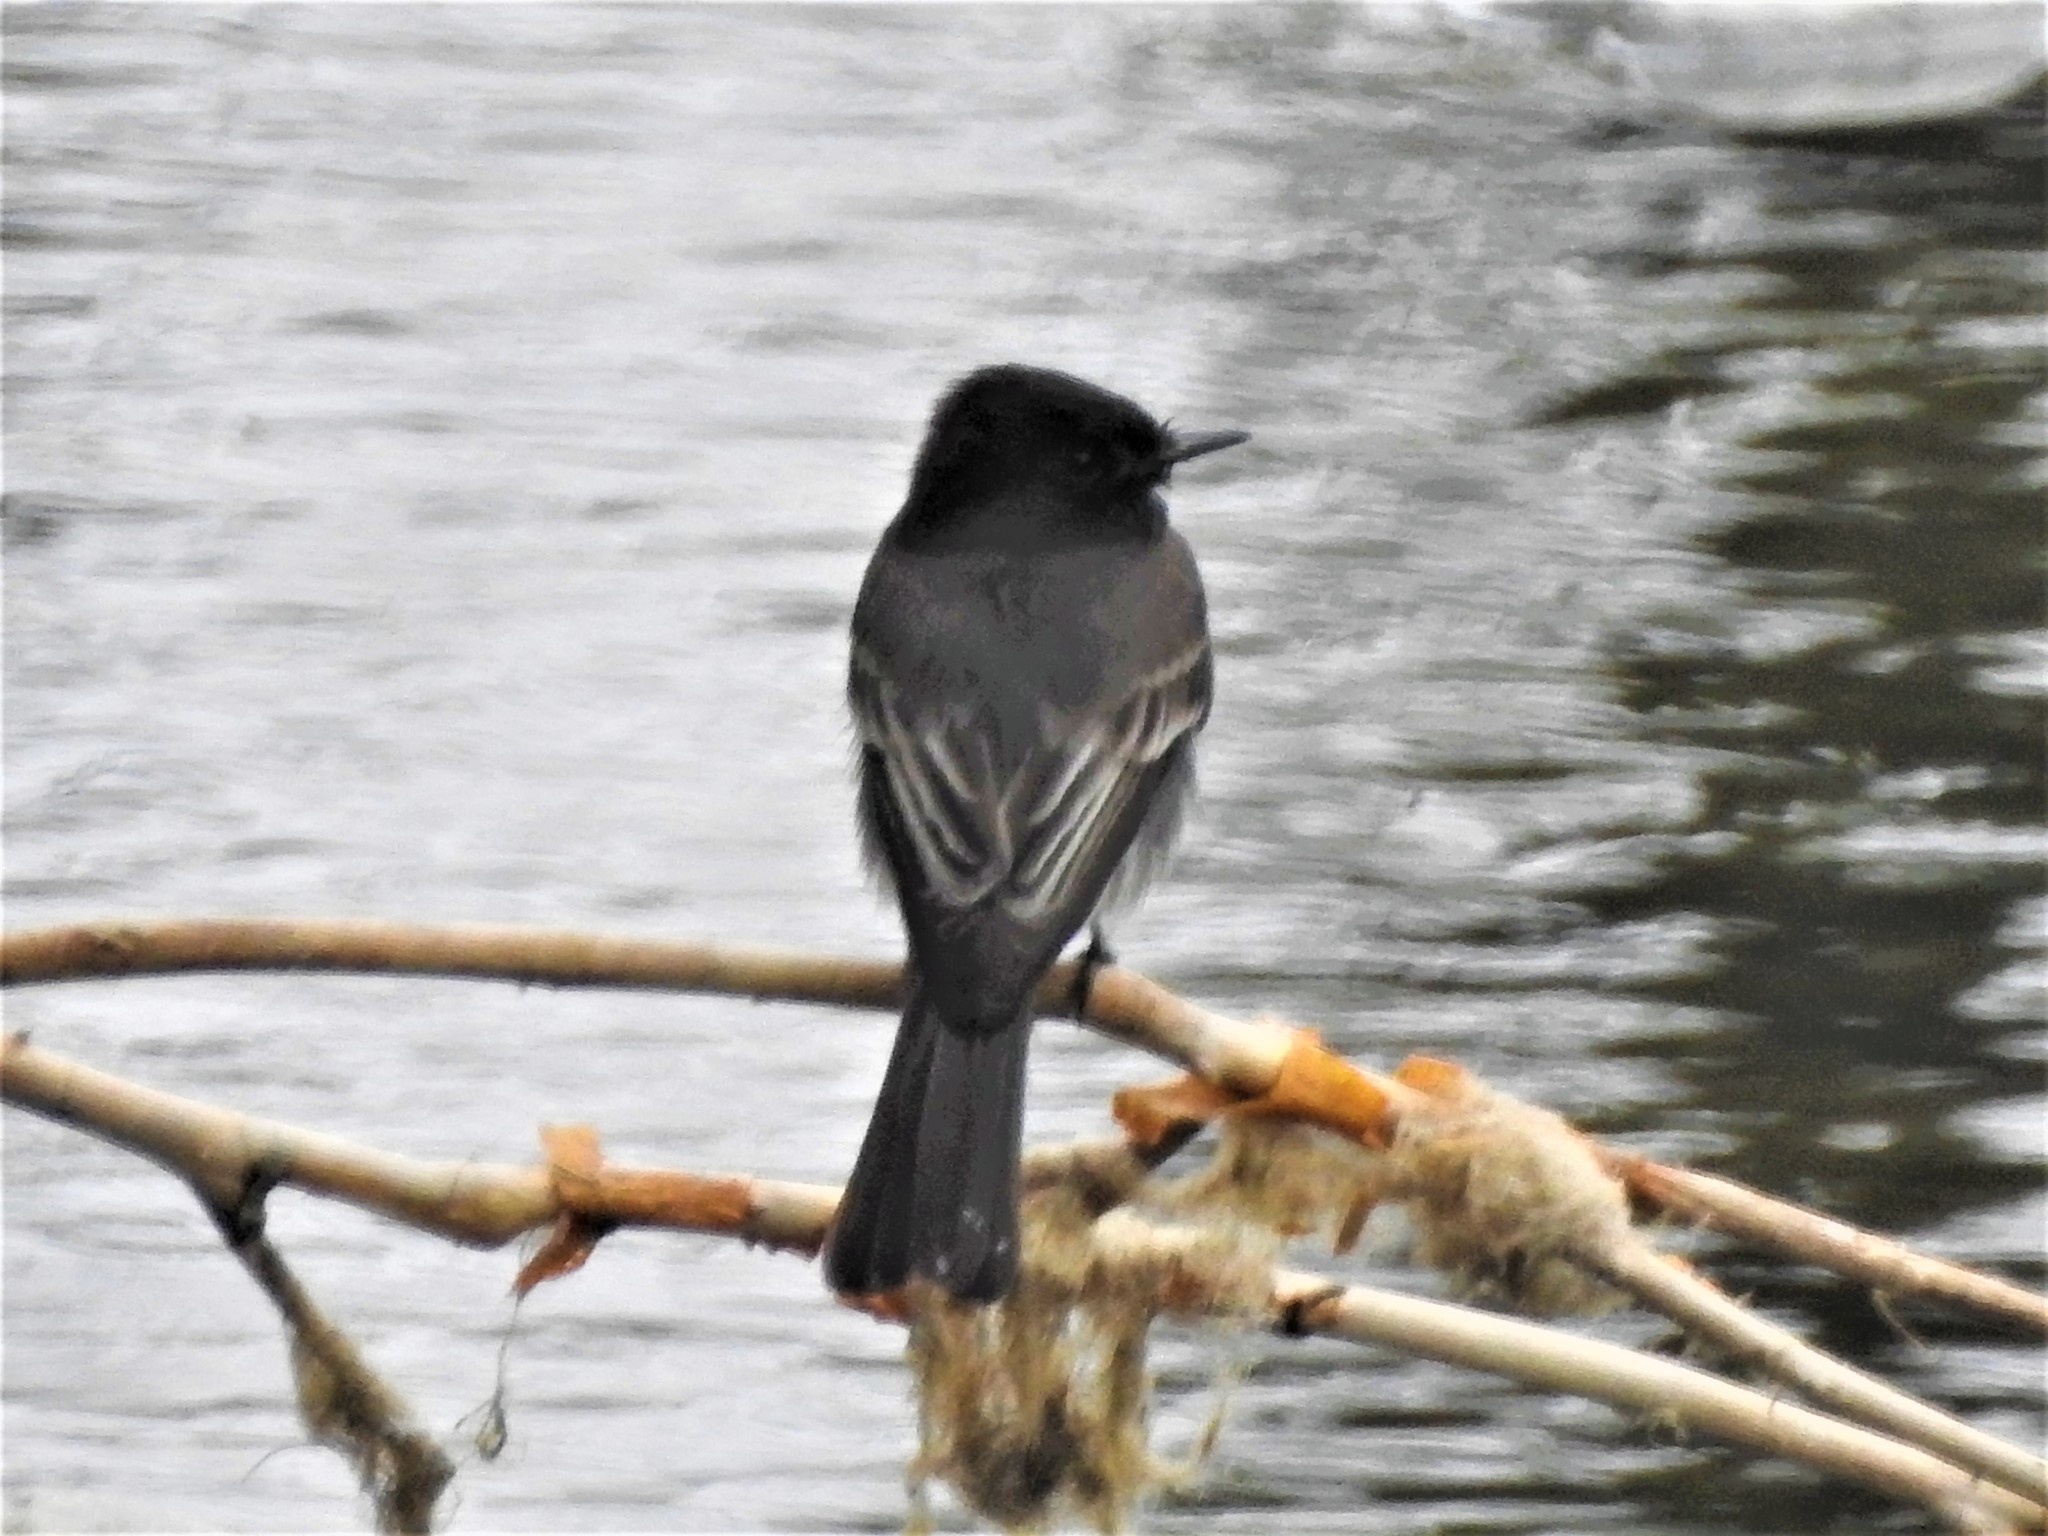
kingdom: Animalia
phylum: Chordata
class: Aves
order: Passeriformes
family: Tyrannidae
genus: Sayornis
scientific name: Sayornis nigricans
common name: Black phoebe
